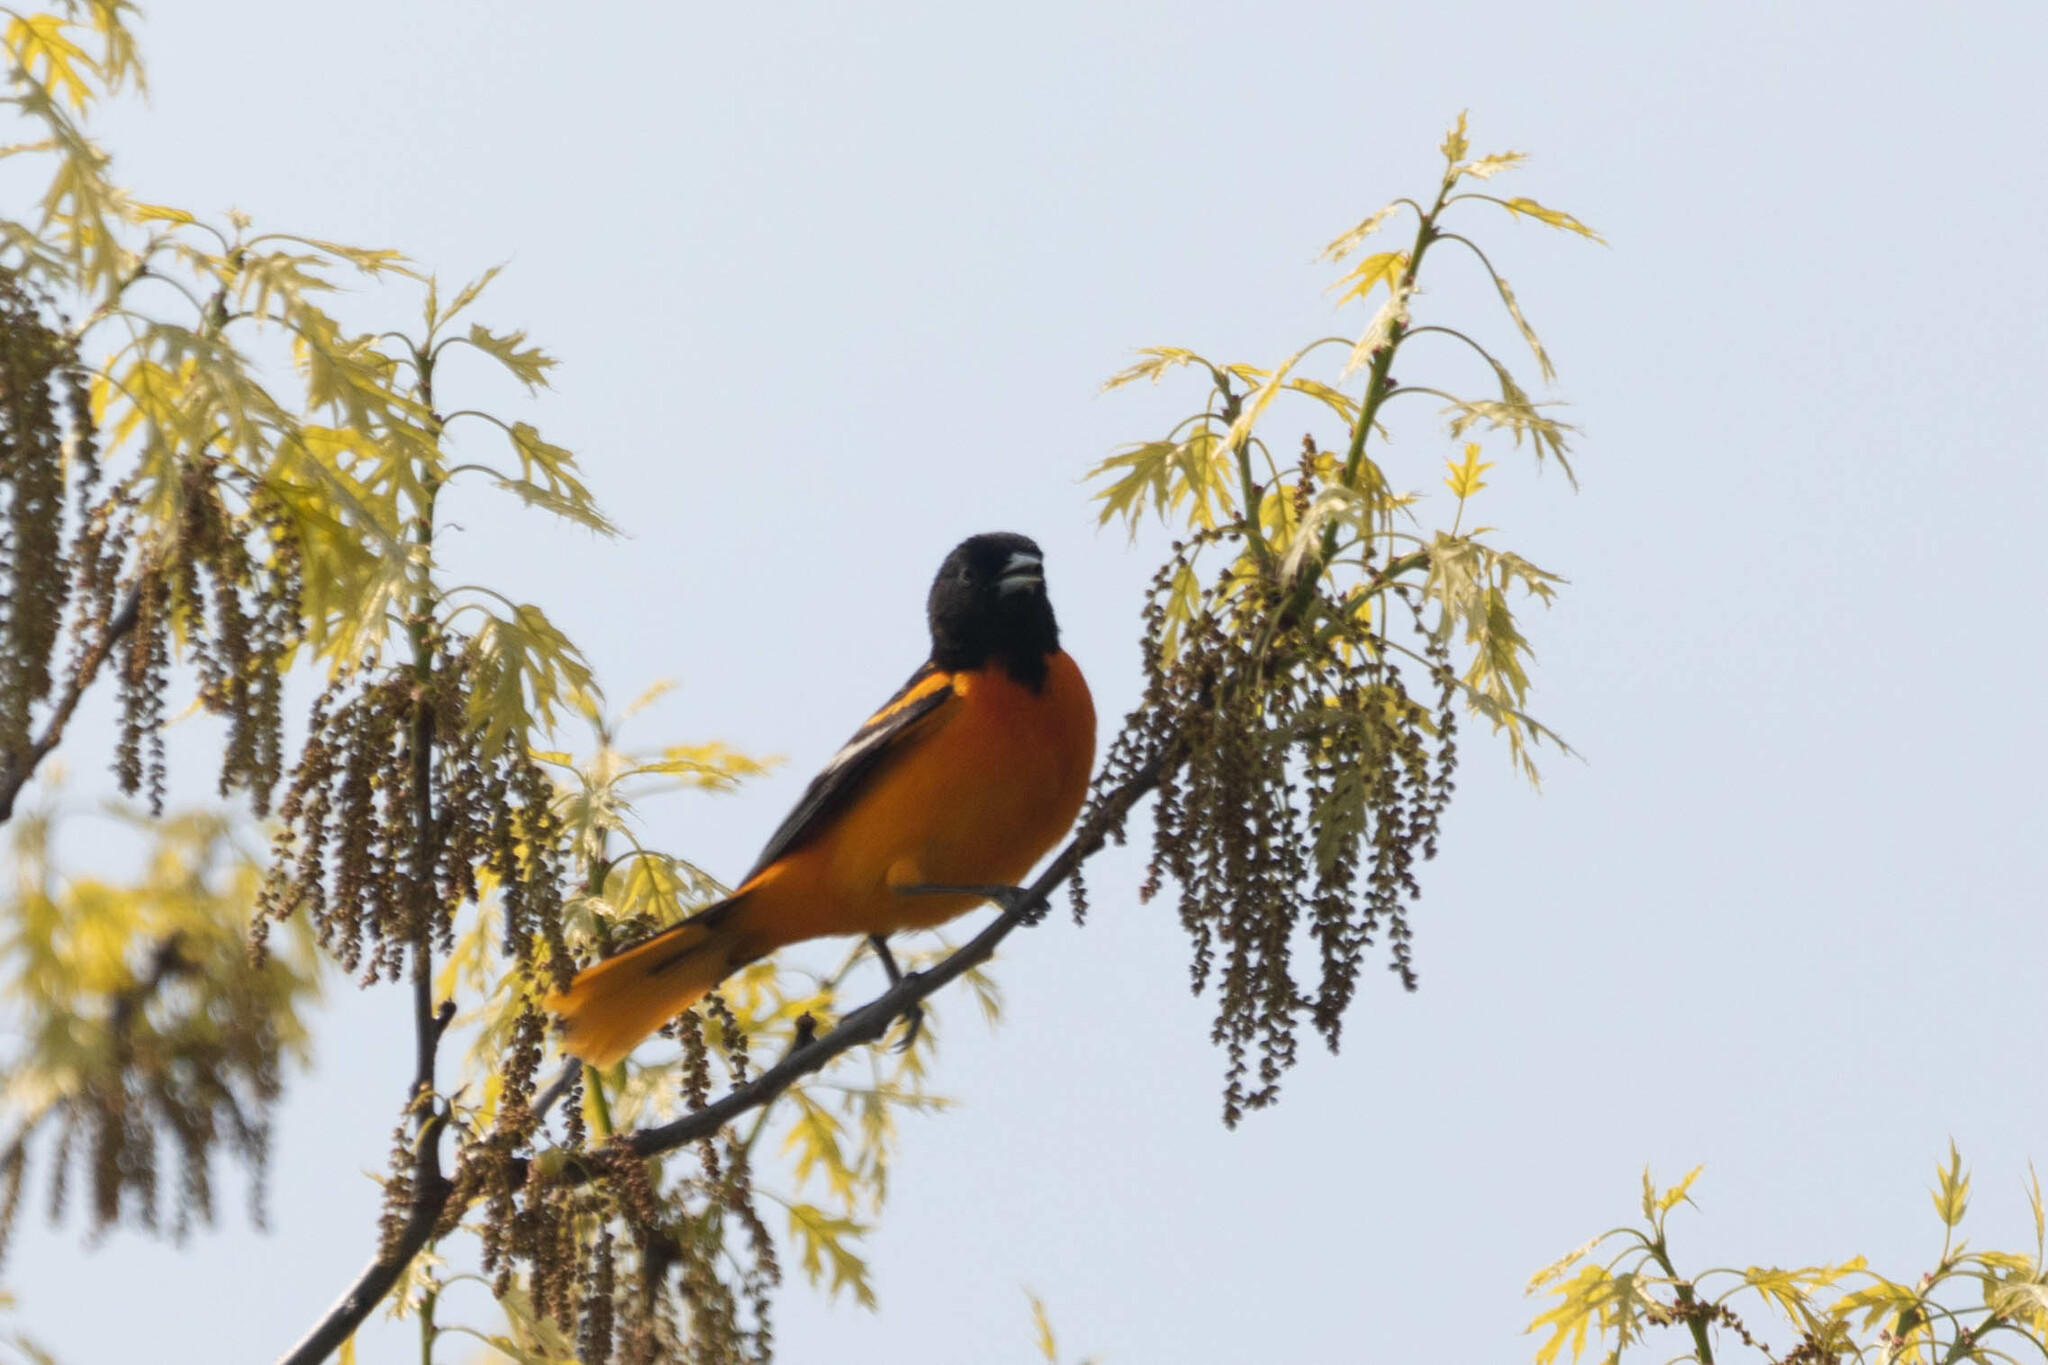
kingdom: Animalia
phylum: Chordata
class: Aves
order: Passeriformes
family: Icteridae
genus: Icterus
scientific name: Icterus galbula
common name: Baltimore oriole
